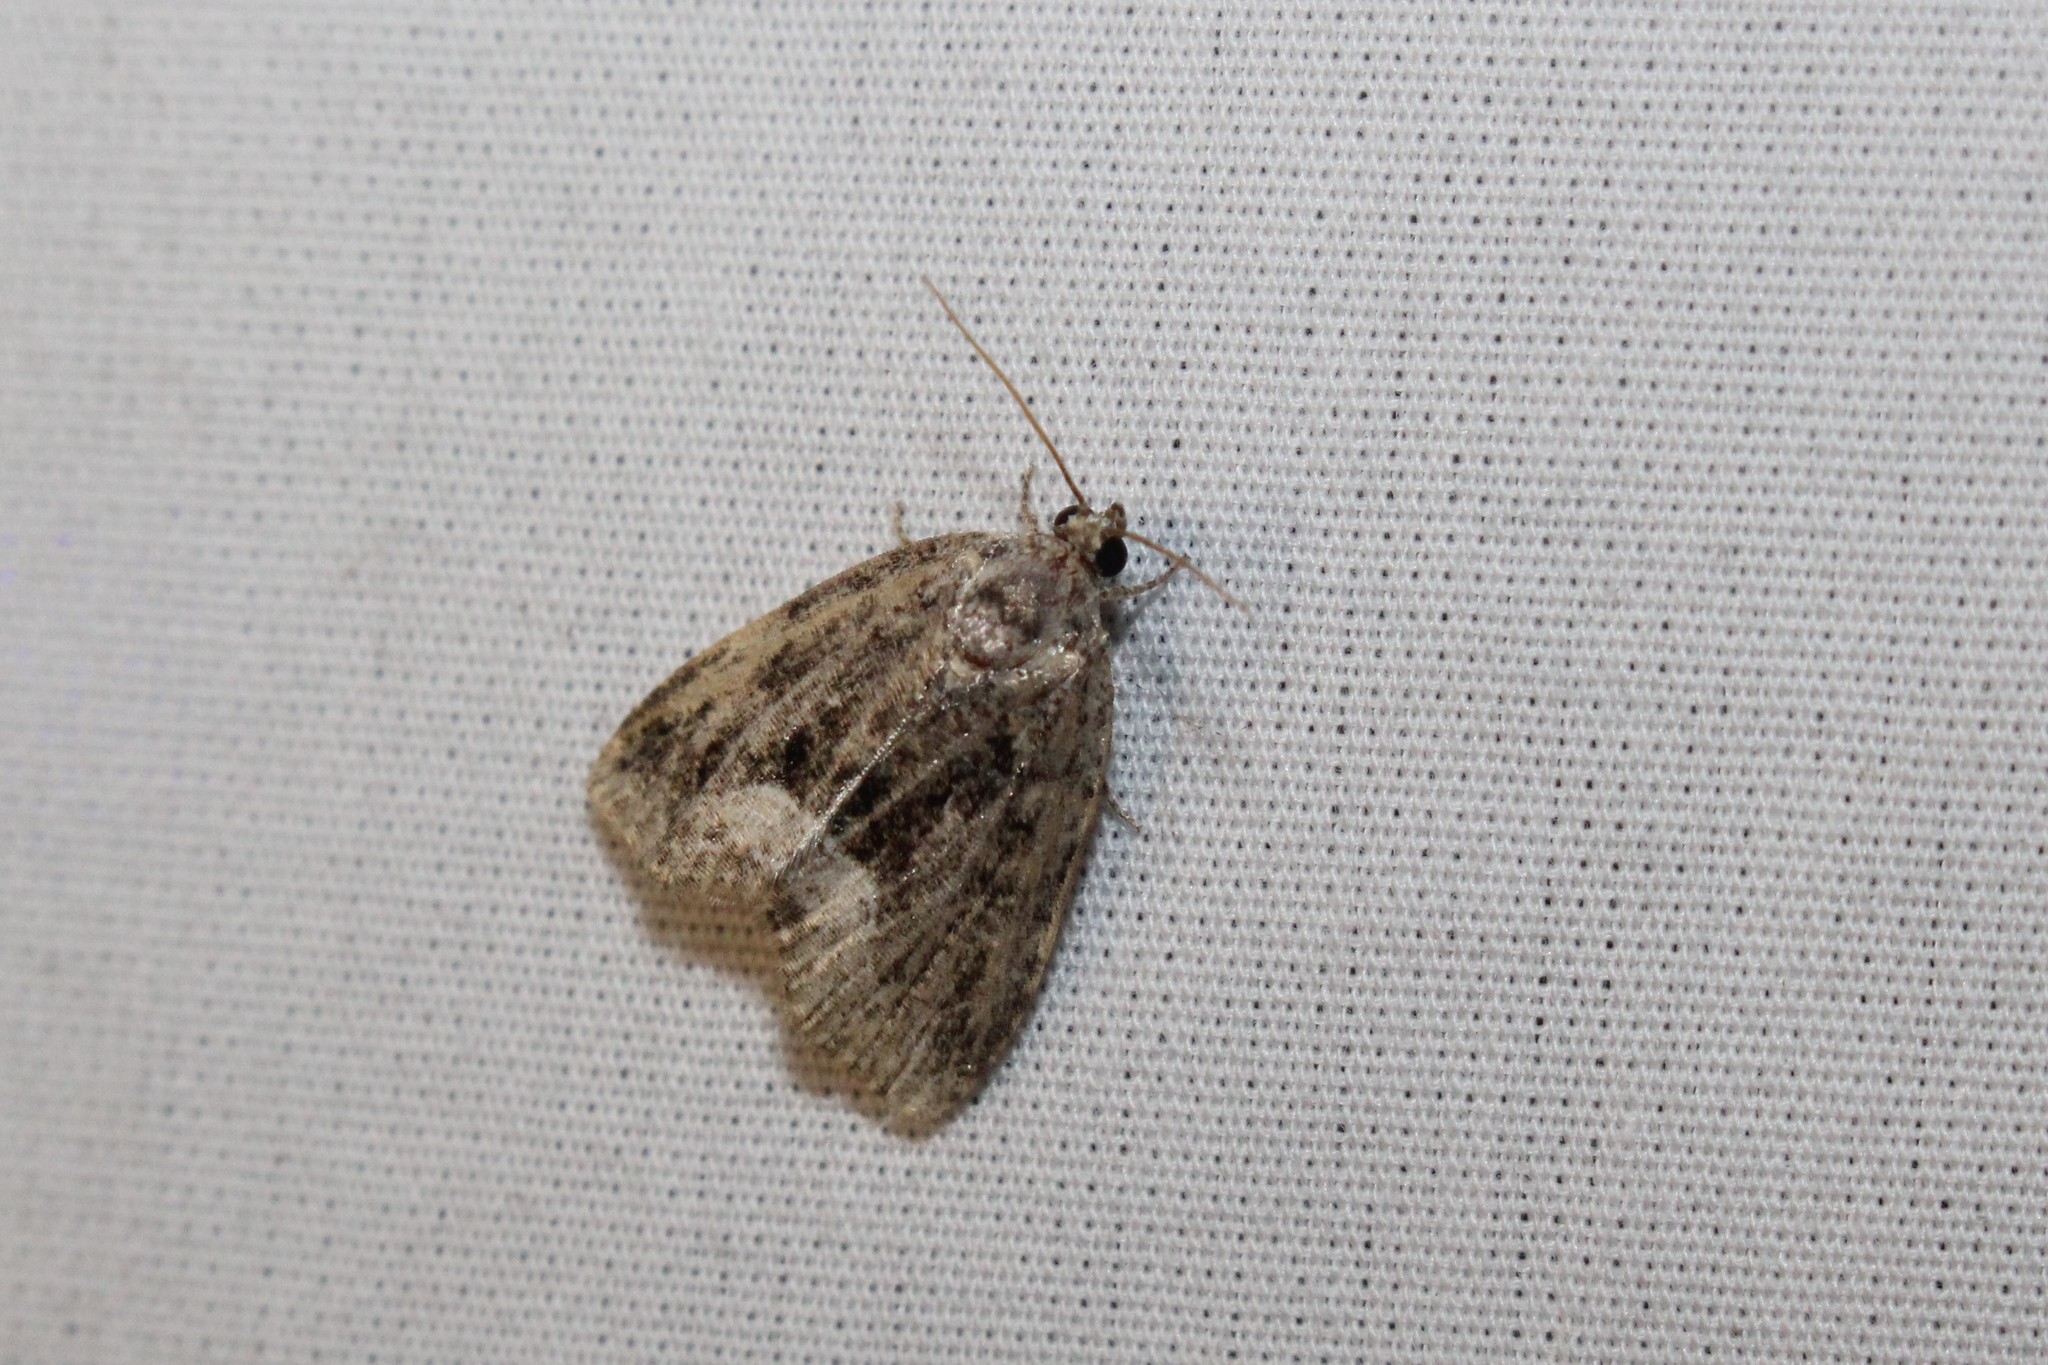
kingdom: Animalia
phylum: Arthropoda
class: Insecta
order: Lepidoptera
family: Noctuidae
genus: Protodeltote
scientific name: Protodeltote muscosula
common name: Large mossy glyph
